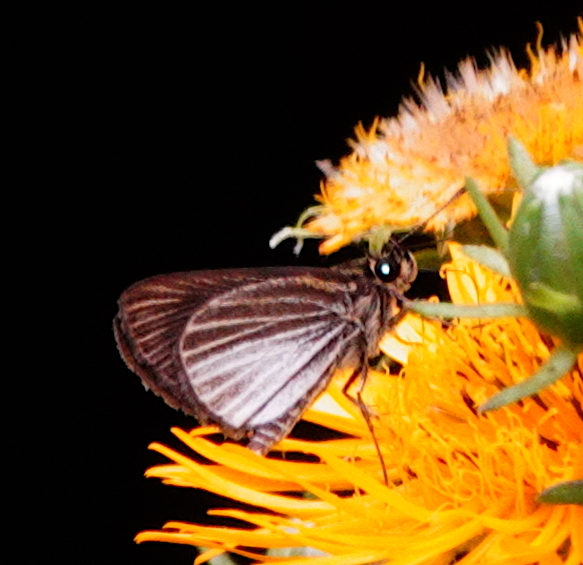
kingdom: Animalia
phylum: Arthropoda
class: Insecta
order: Lepidoptera
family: Hesperiidae
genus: Callimormus
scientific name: Callimormus radiola
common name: Radiant skipper
